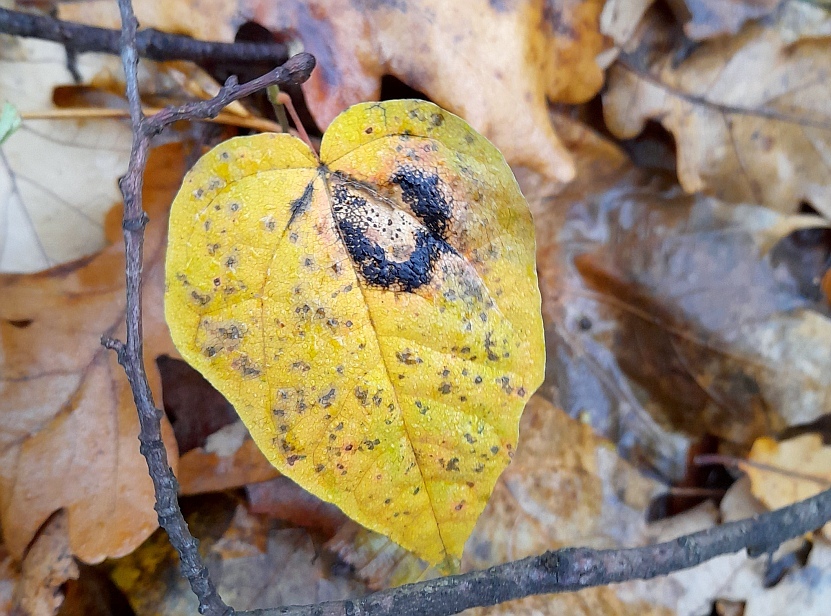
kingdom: Plantae
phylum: Tracheophyta
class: Magnoliopsida
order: Sapindales
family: Sapindaceae
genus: Acer
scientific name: Acer platanoides
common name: Norway maple
